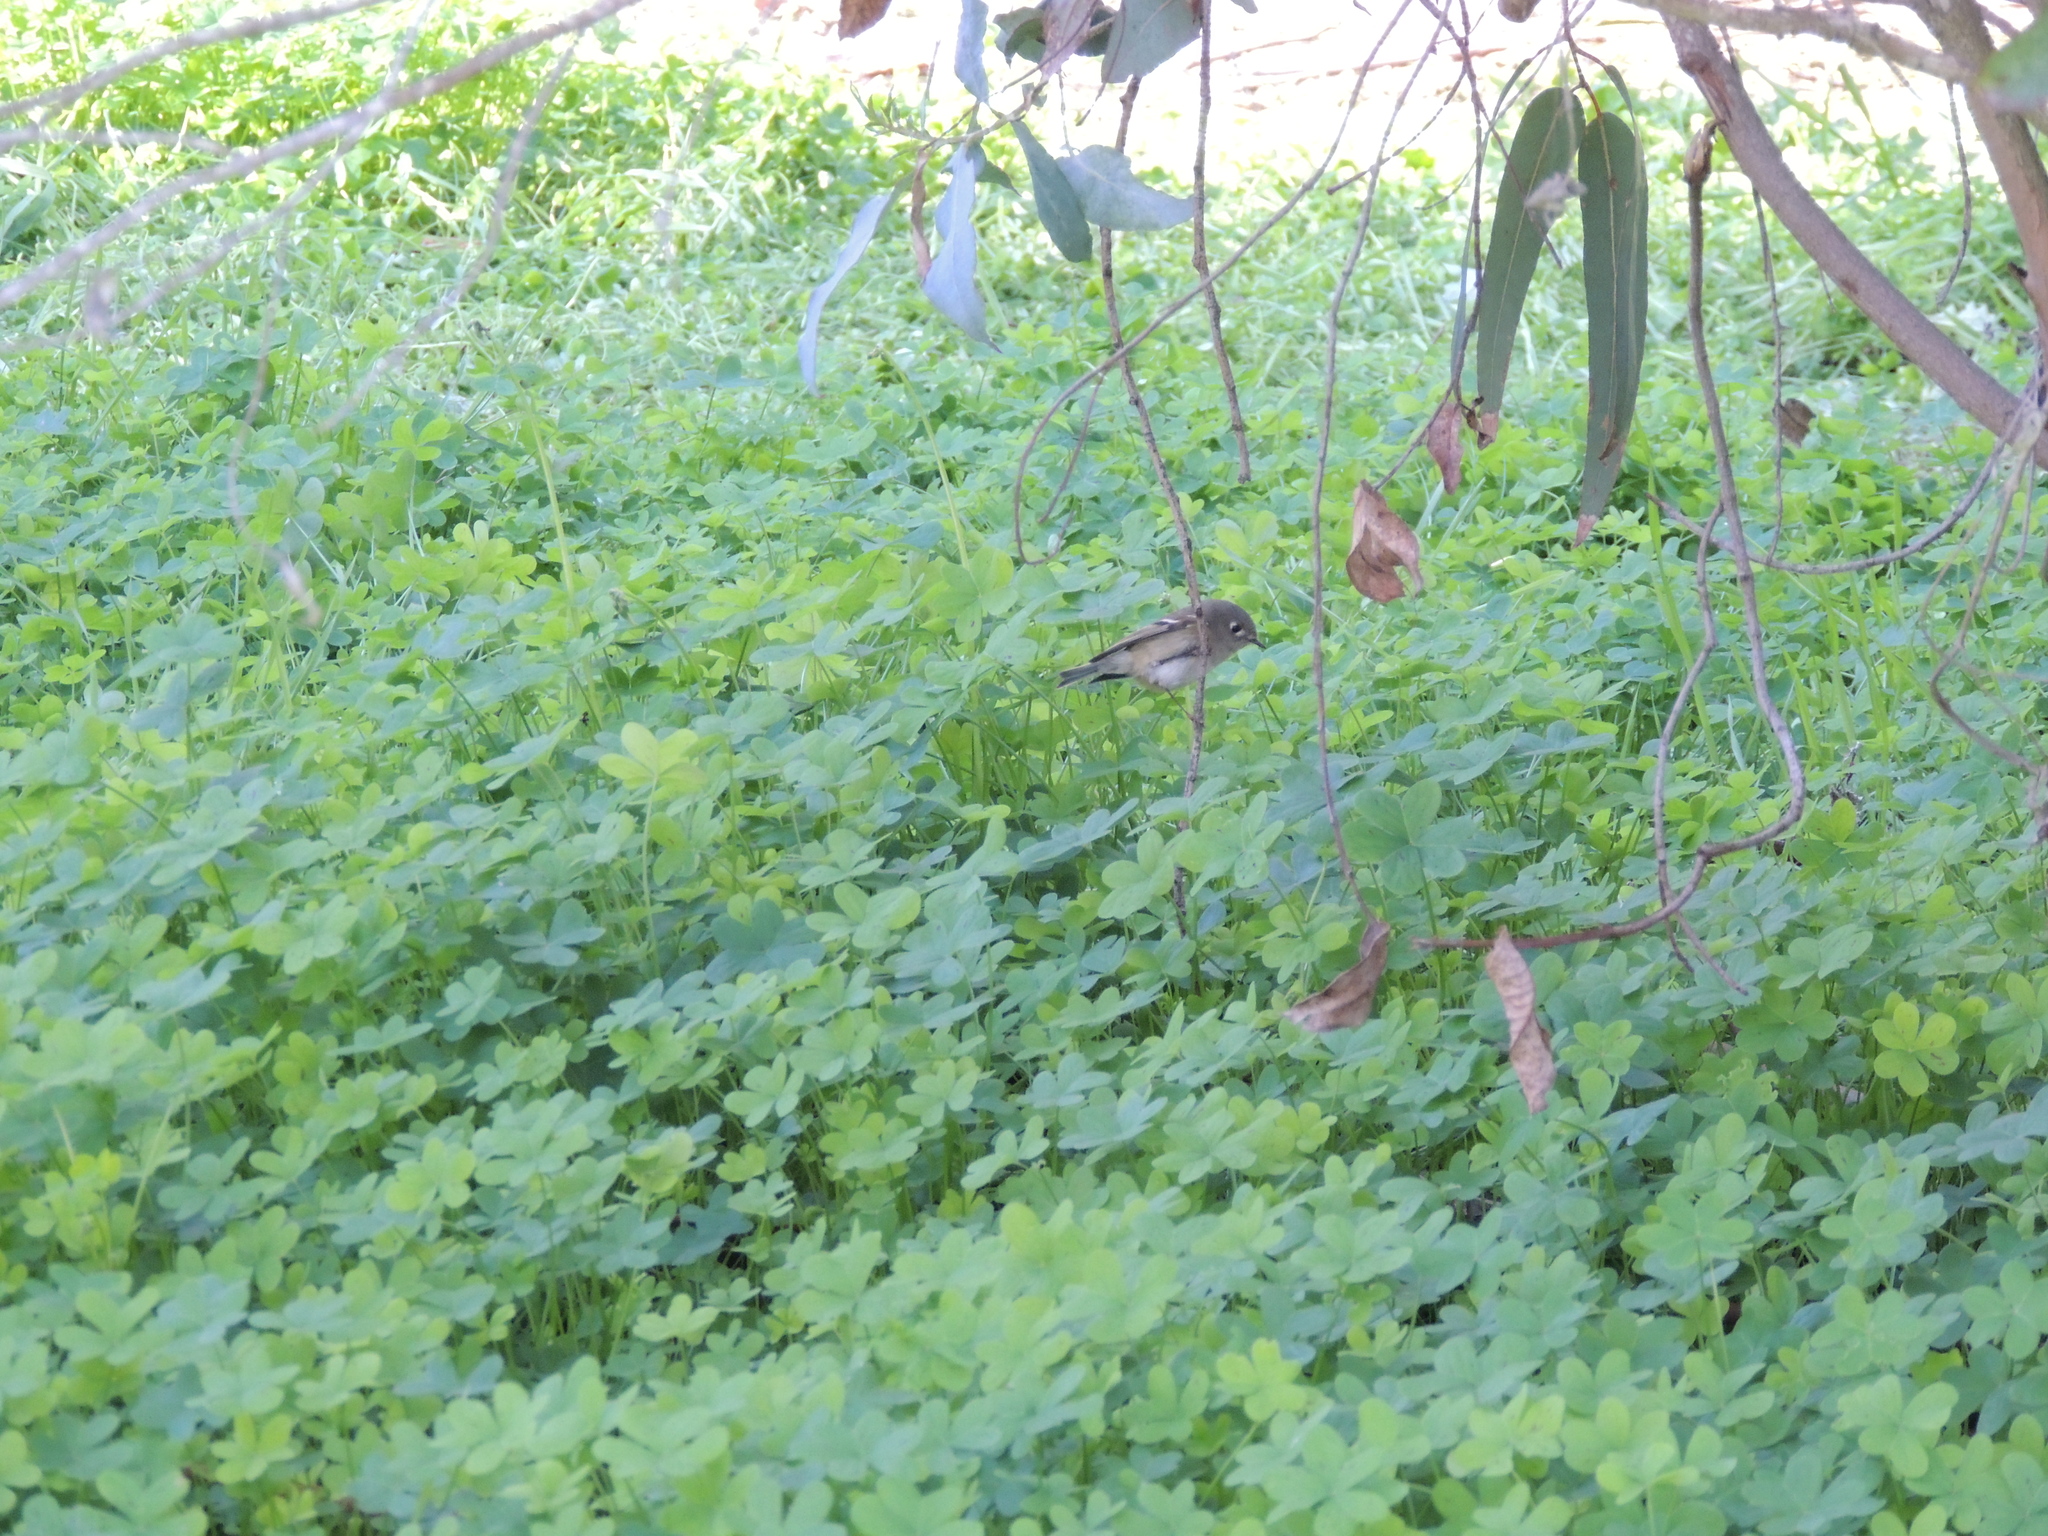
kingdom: Animalia
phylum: Chordata
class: Aves
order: Passeriformes
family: Regulidae
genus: Regulus
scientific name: Regulus calendula
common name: Ruby-crowned kinglet
